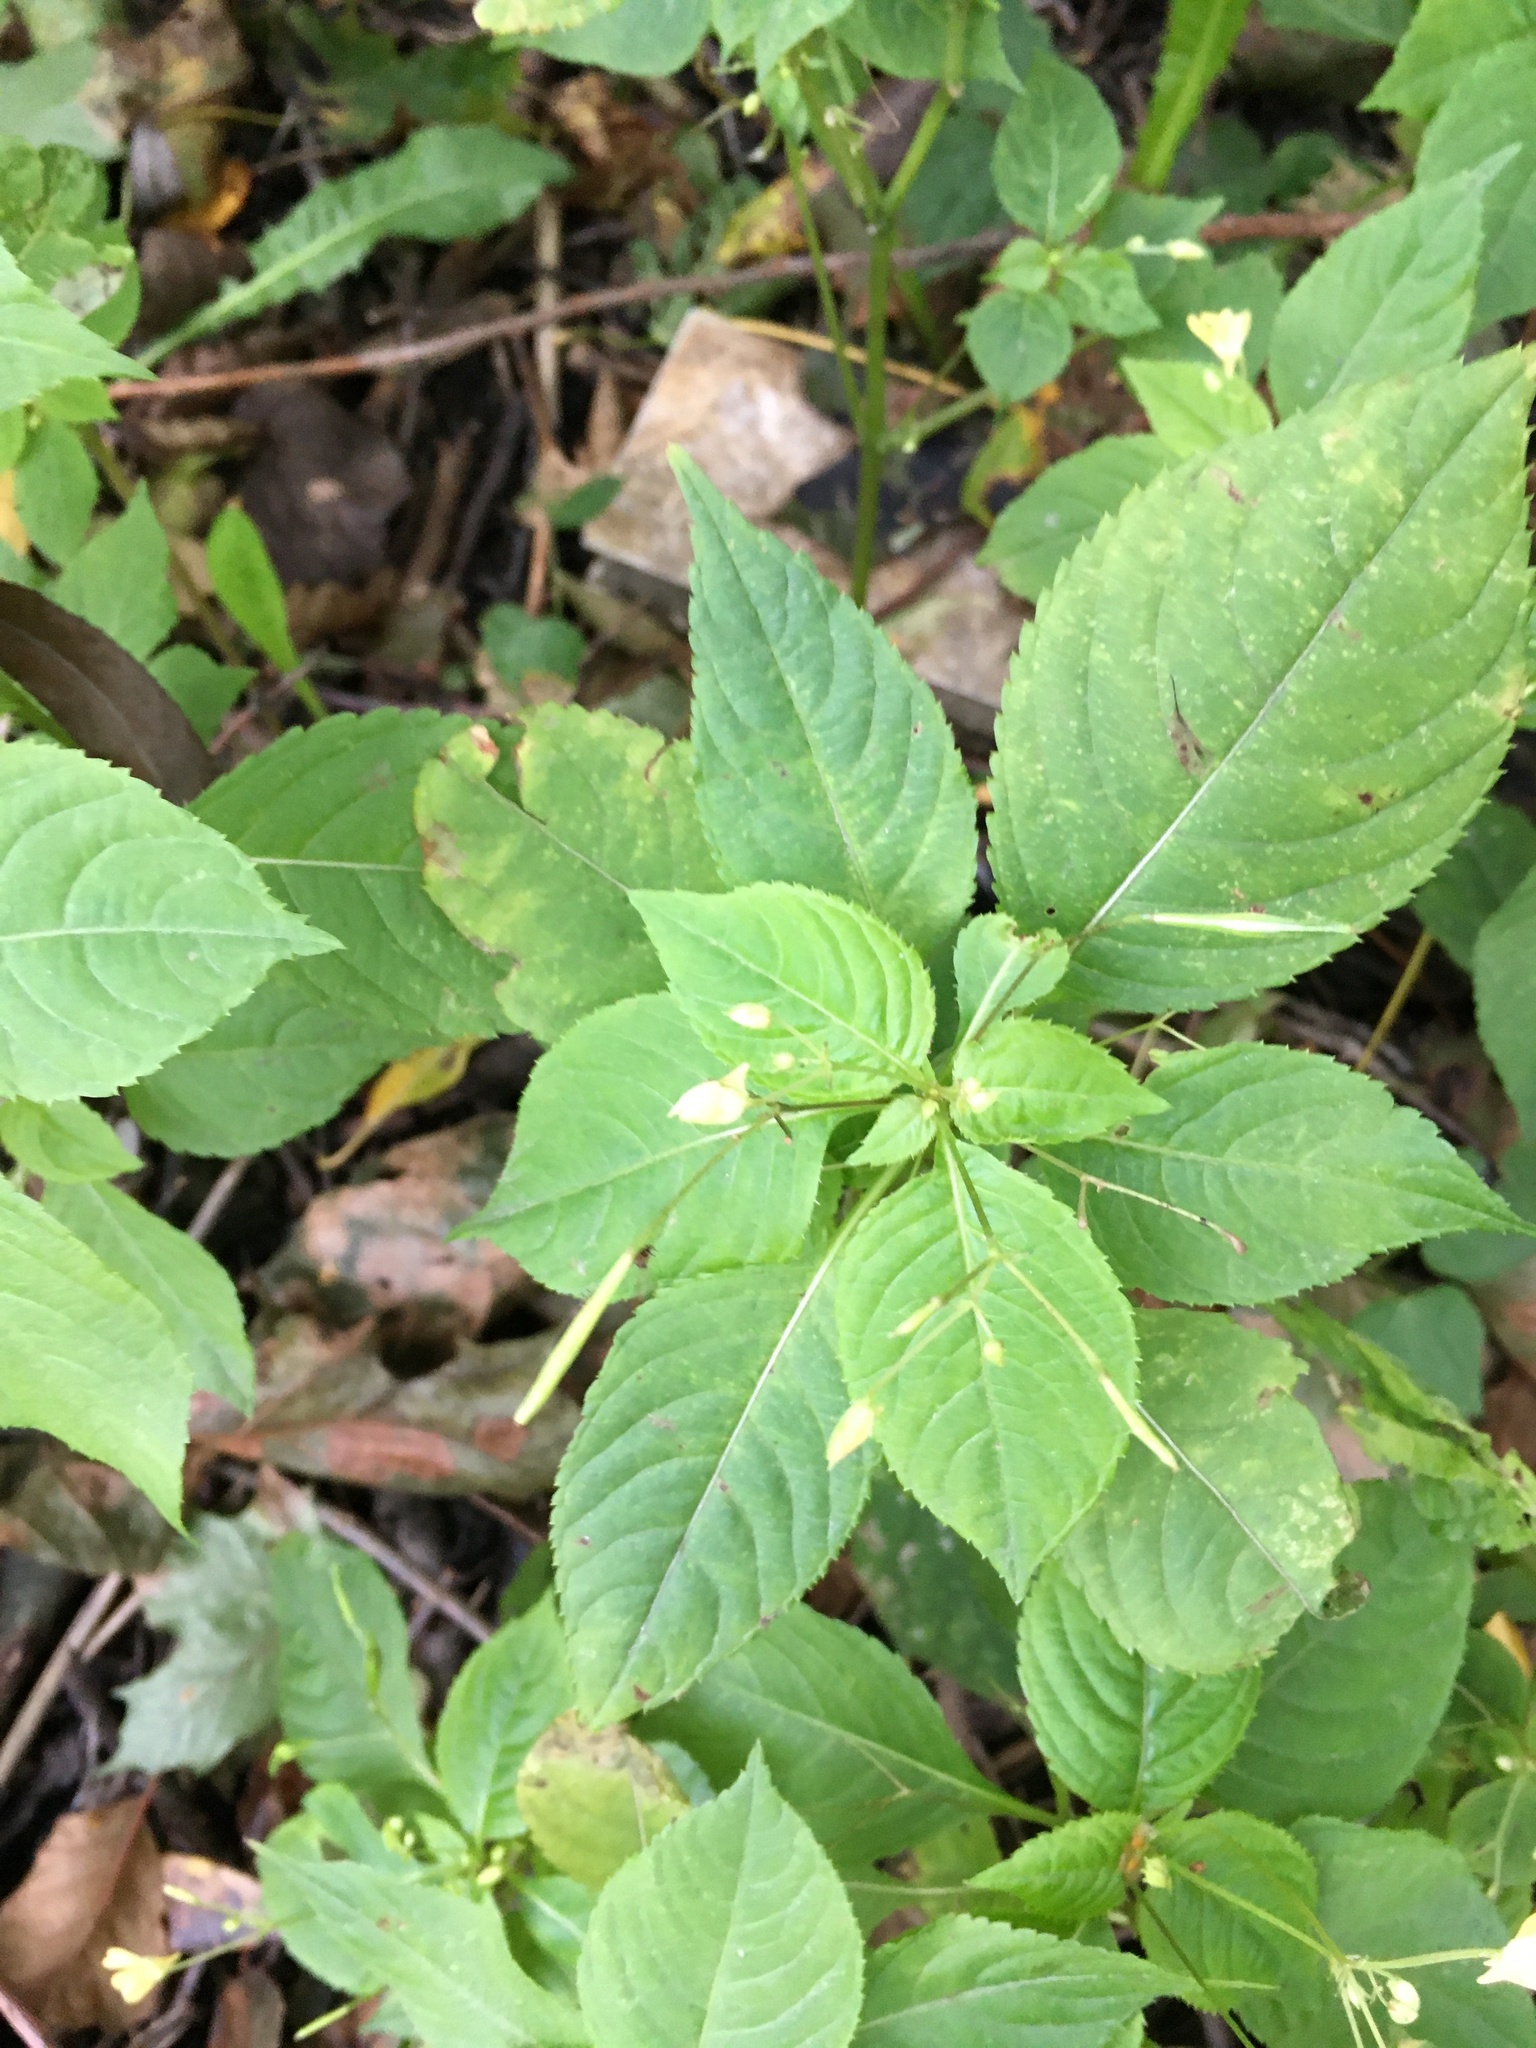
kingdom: Plantae
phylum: Tracheophyta
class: Magnoliopsida
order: Ericales
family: Balsaminaceae
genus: Impatiens
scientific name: Impatiens parviflora
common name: Small balsam
